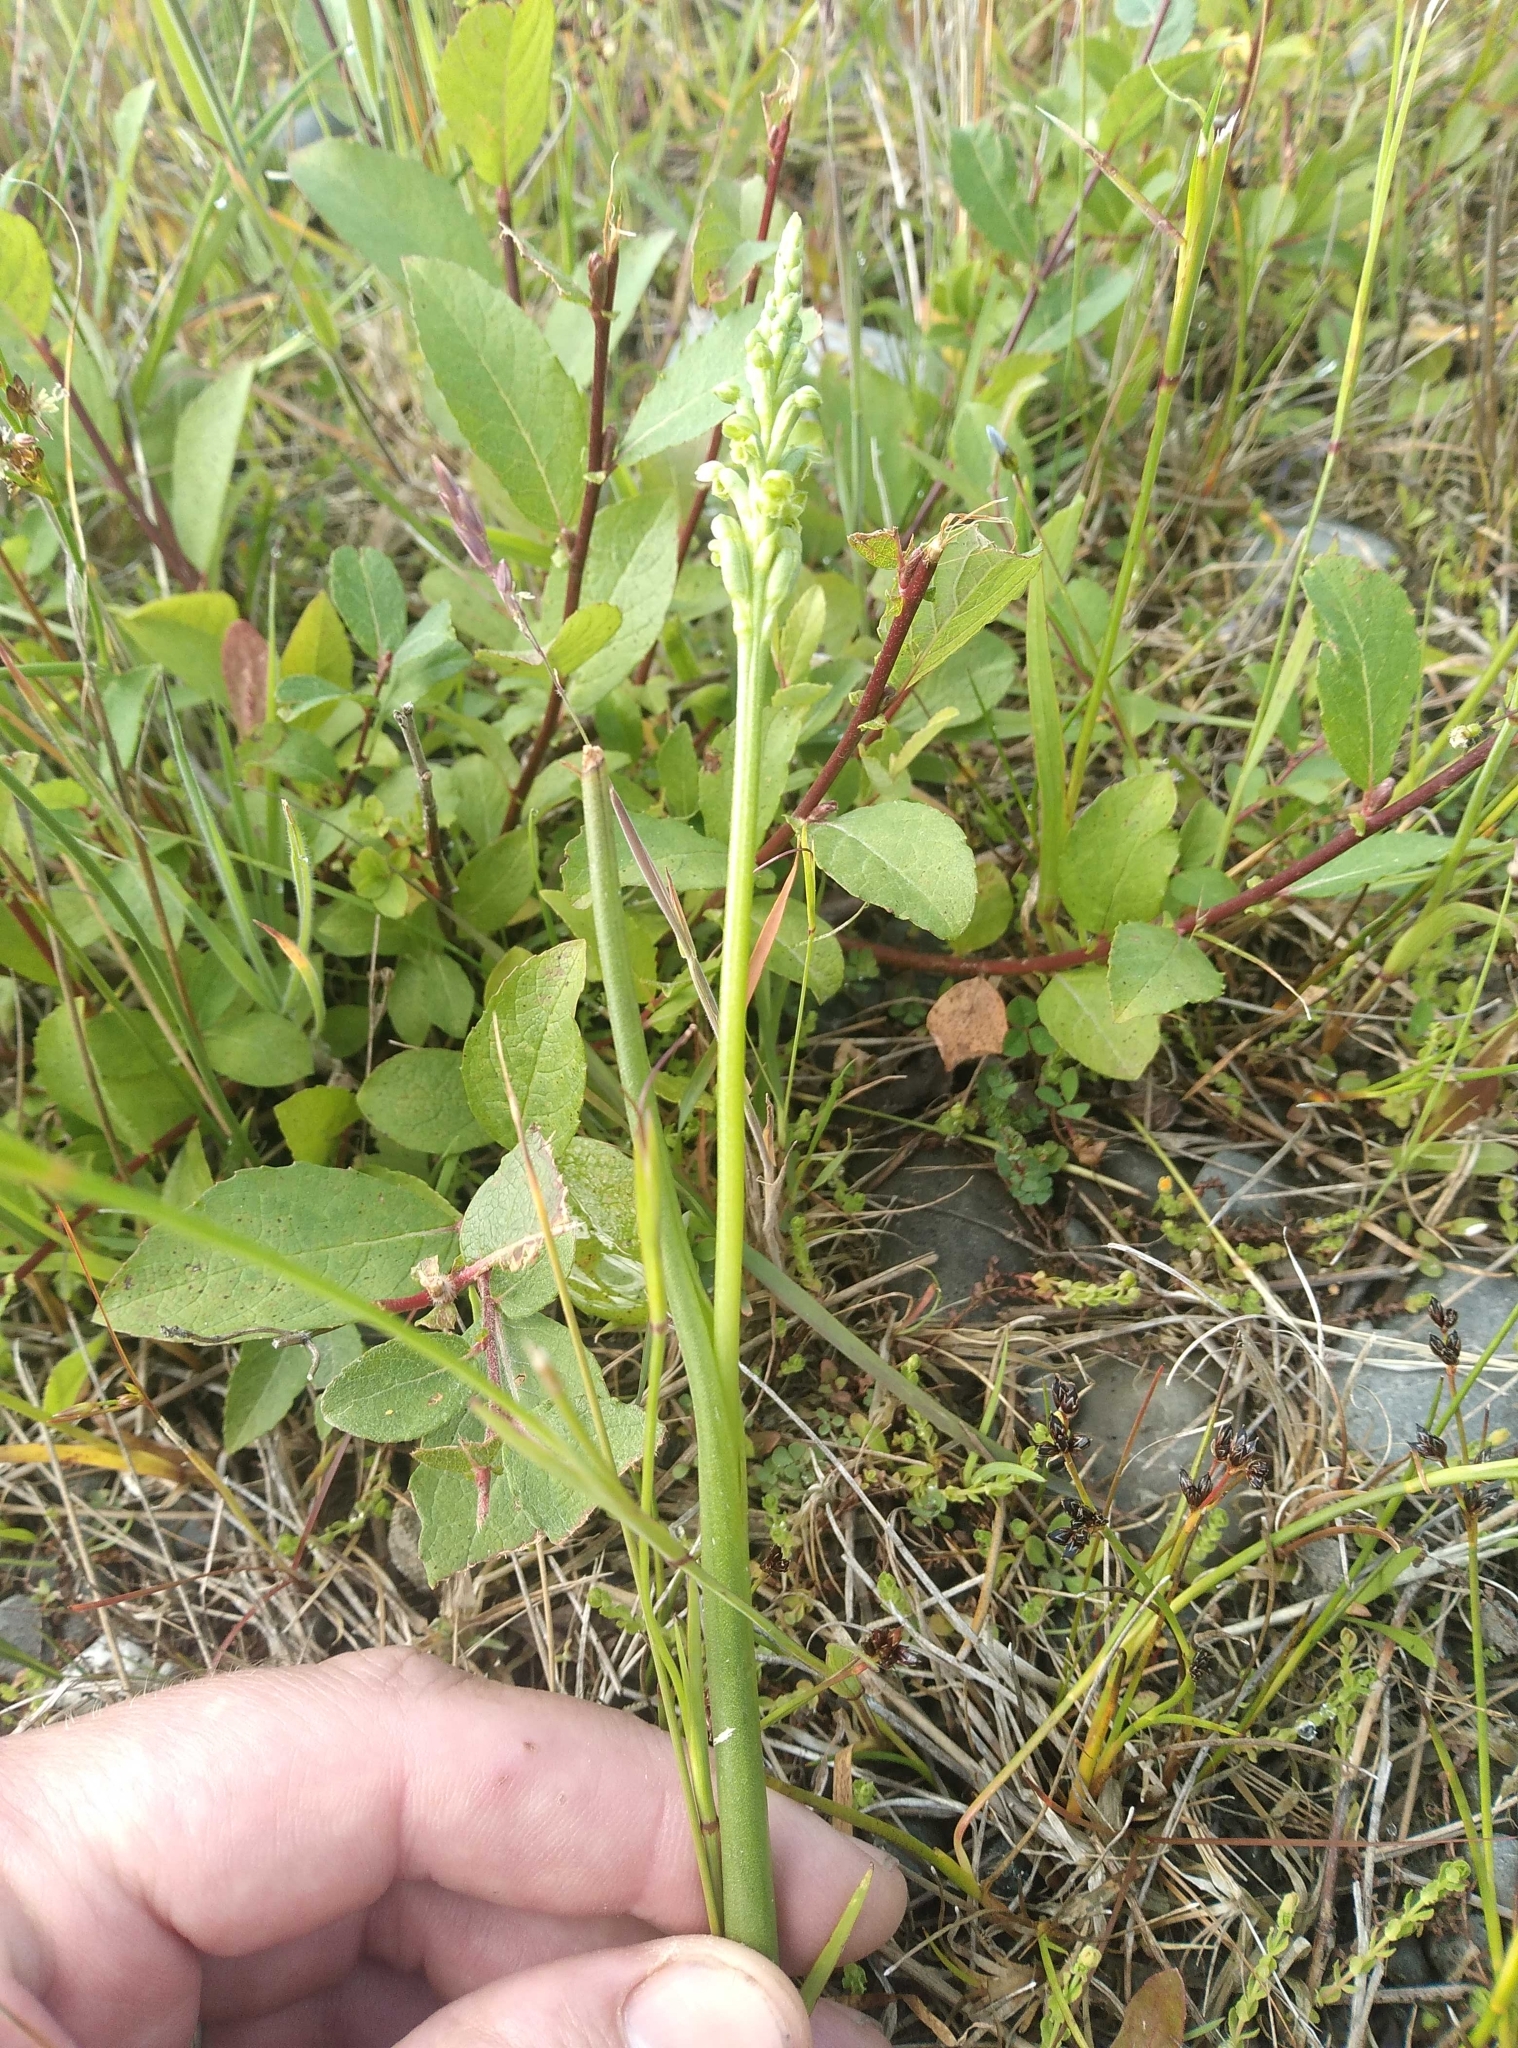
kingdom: Plantae
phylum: Tracheophyta
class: Liliopsida
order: Asparagales
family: Orchidaceae
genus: Microtis
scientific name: Microtis unifolia
